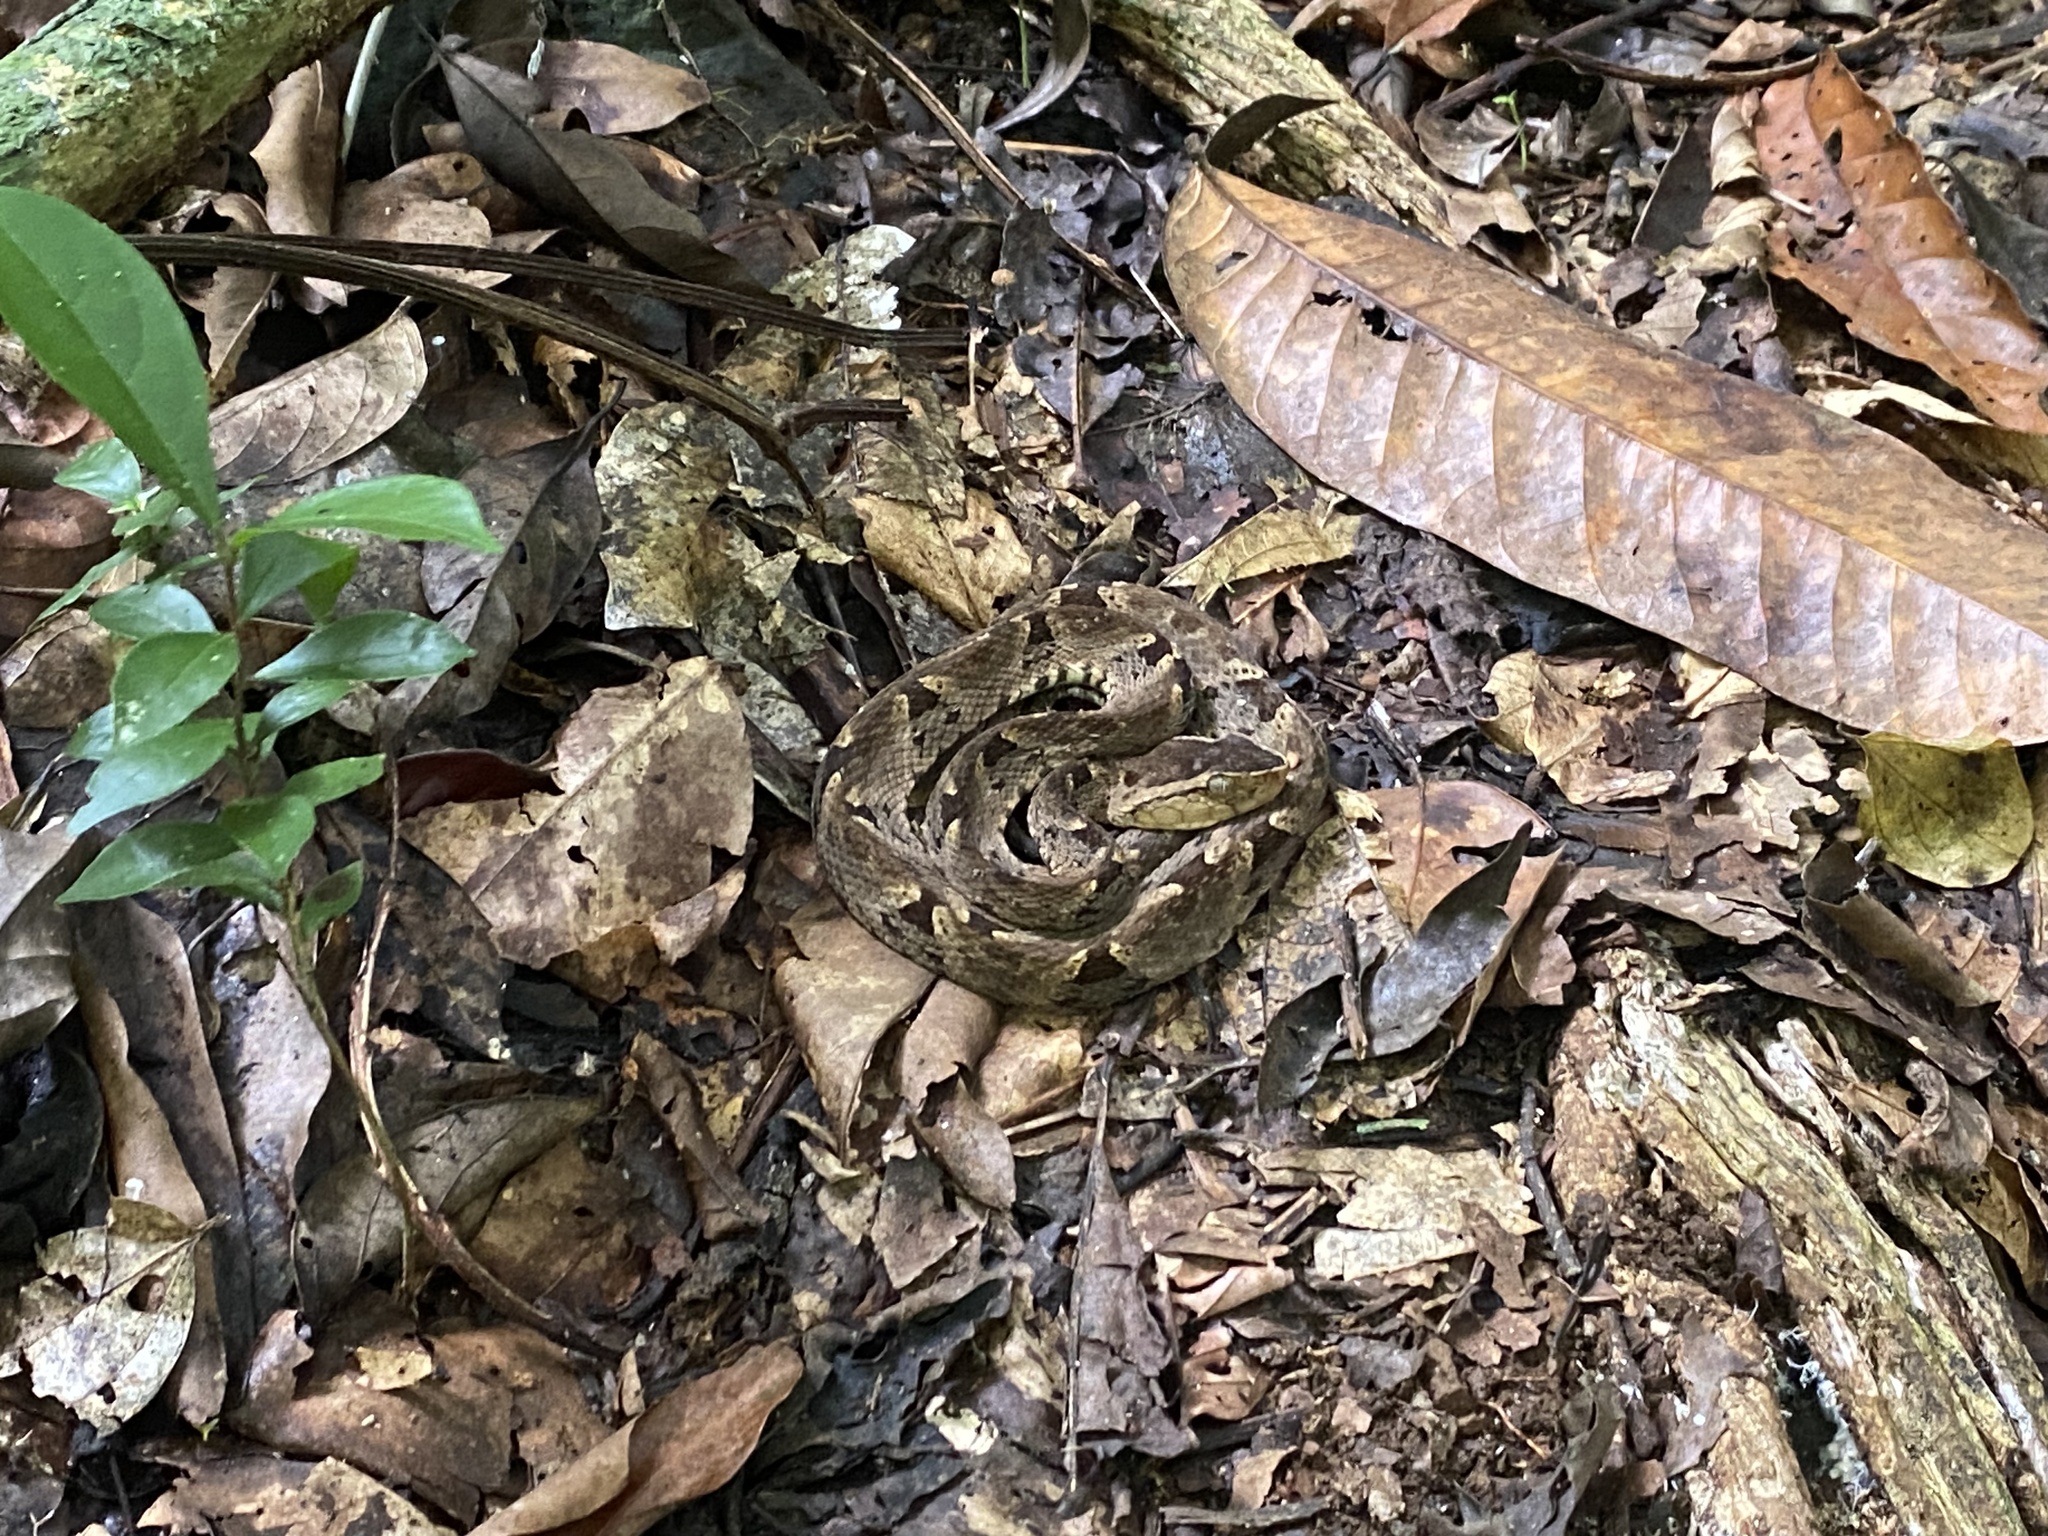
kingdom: Animalia
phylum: Chordata
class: Squamata
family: Viperidae
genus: Bothrops
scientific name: Bothrops asper
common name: Terciopelo
